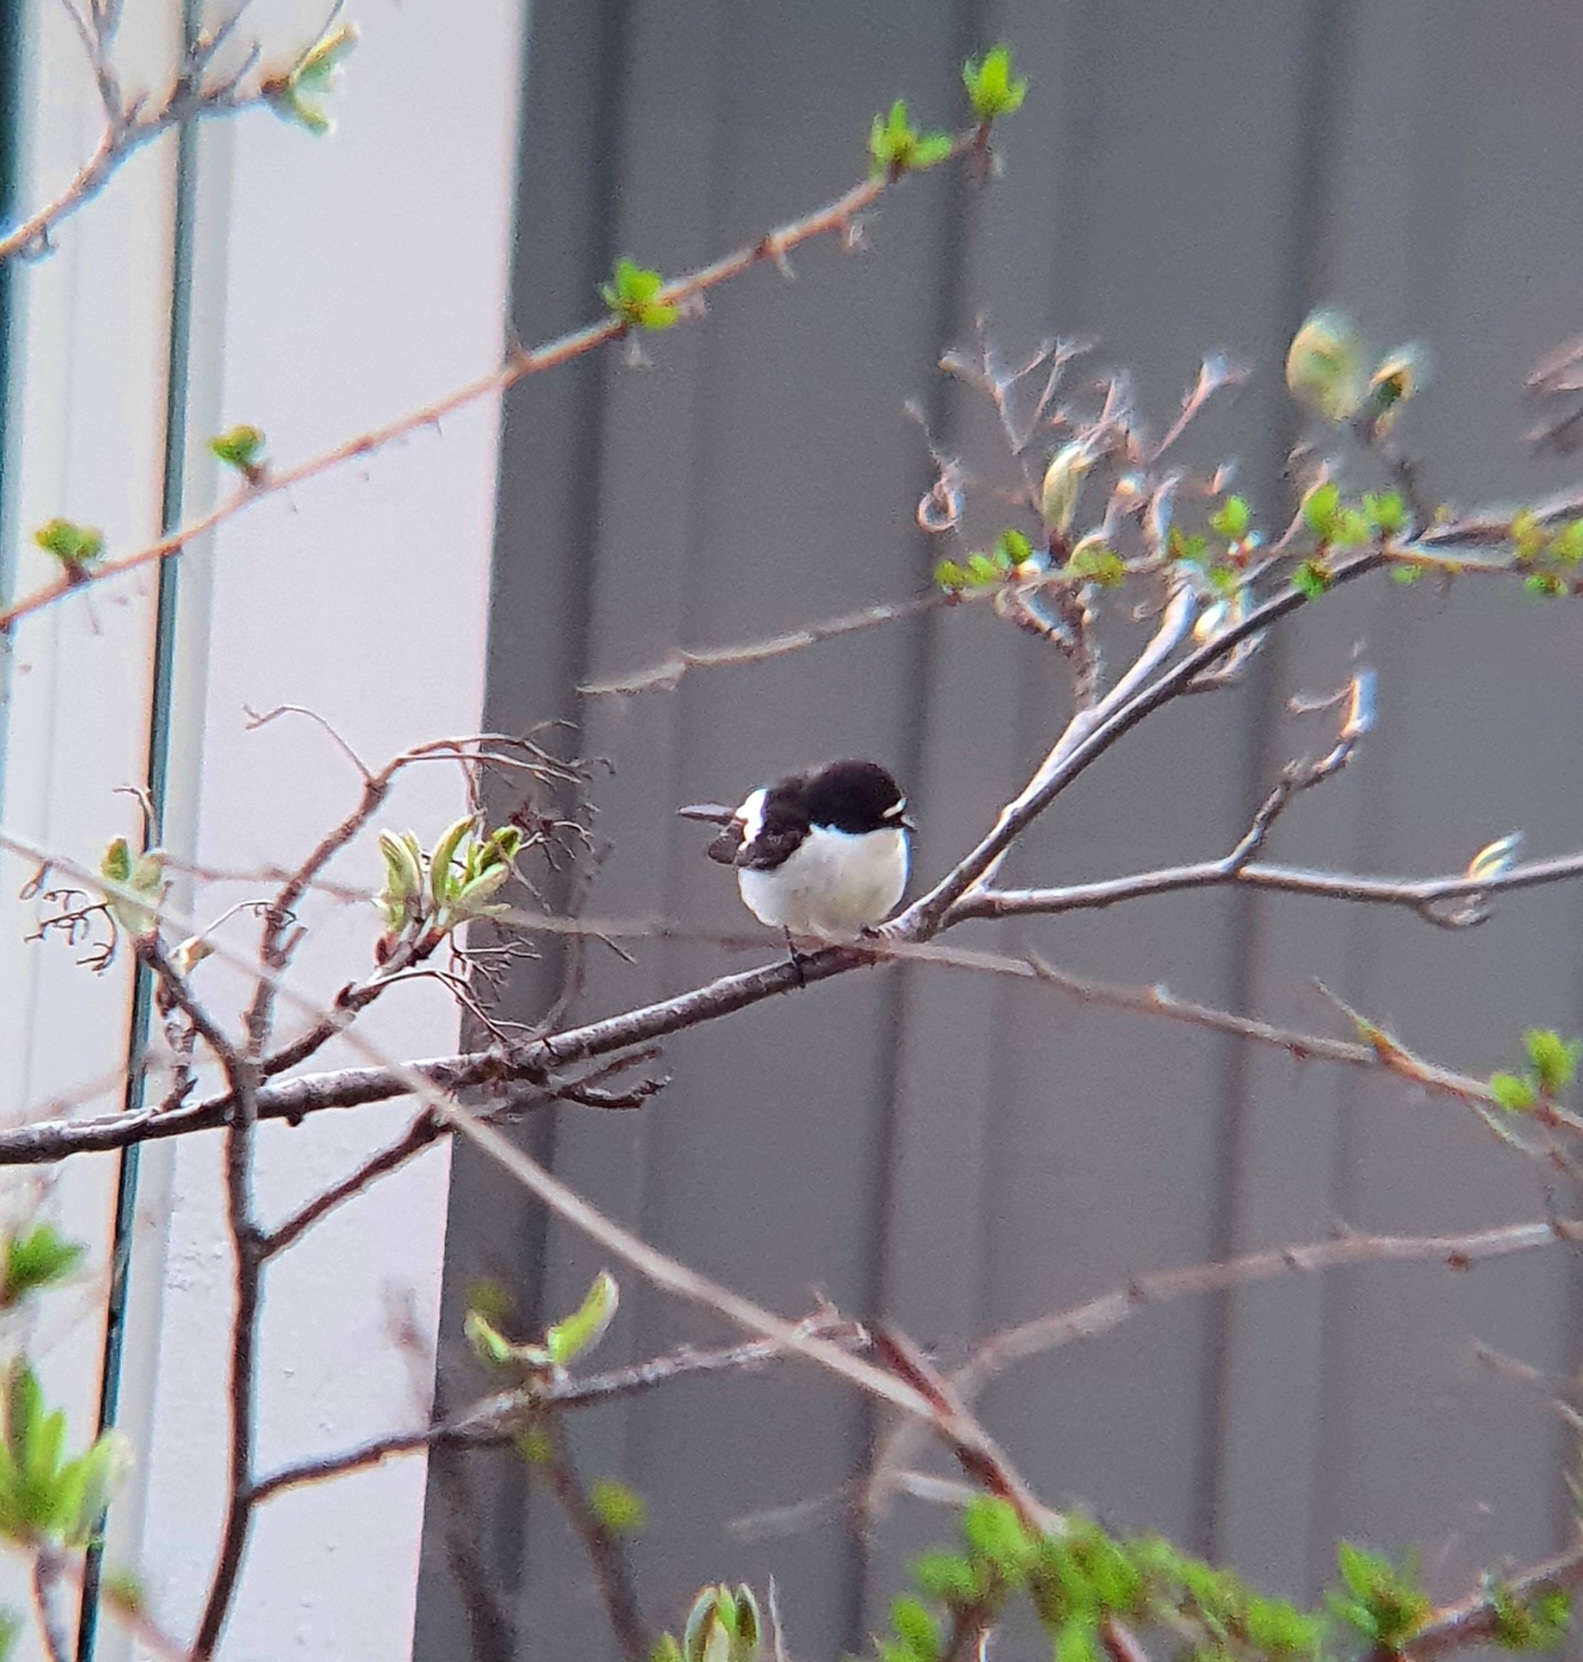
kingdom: Animalia
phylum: Chordata
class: Aves
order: Passeriformes
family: Muscicapidae
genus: Ficedula
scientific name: Ficedula hypoleuca
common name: European pied flycatcher
